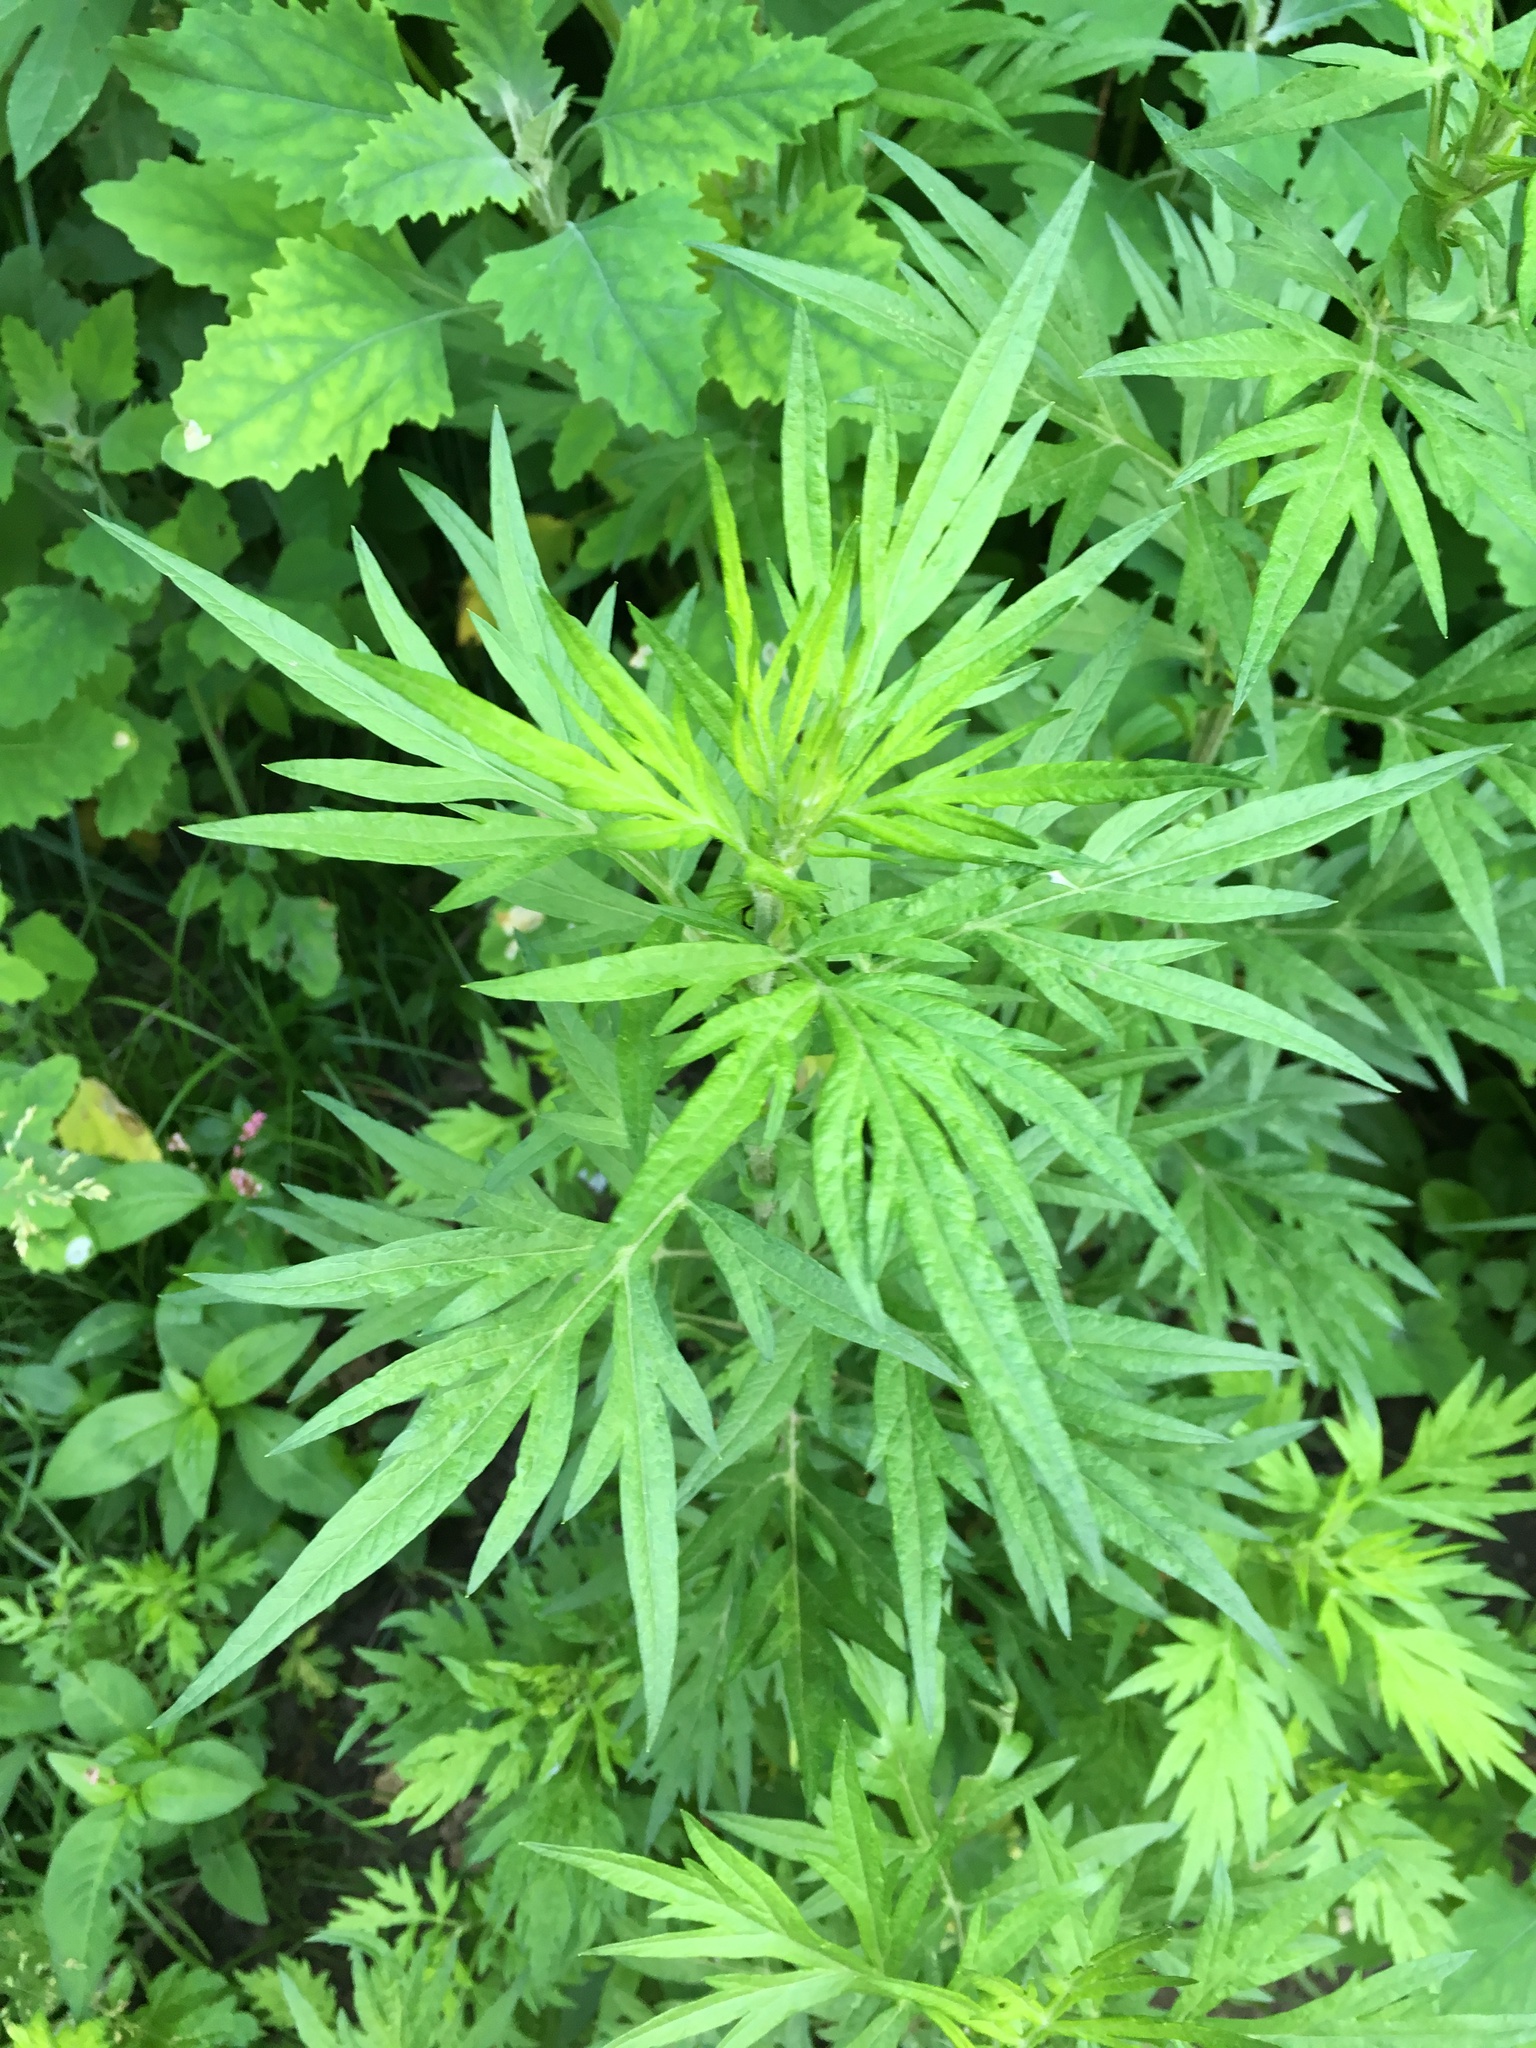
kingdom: Plantae
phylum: Tracheophyta
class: Magnoliopsida
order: Asterales
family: Asteraceae
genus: Artemisia
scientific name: Artemisia vulgaris
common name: Mugwort
